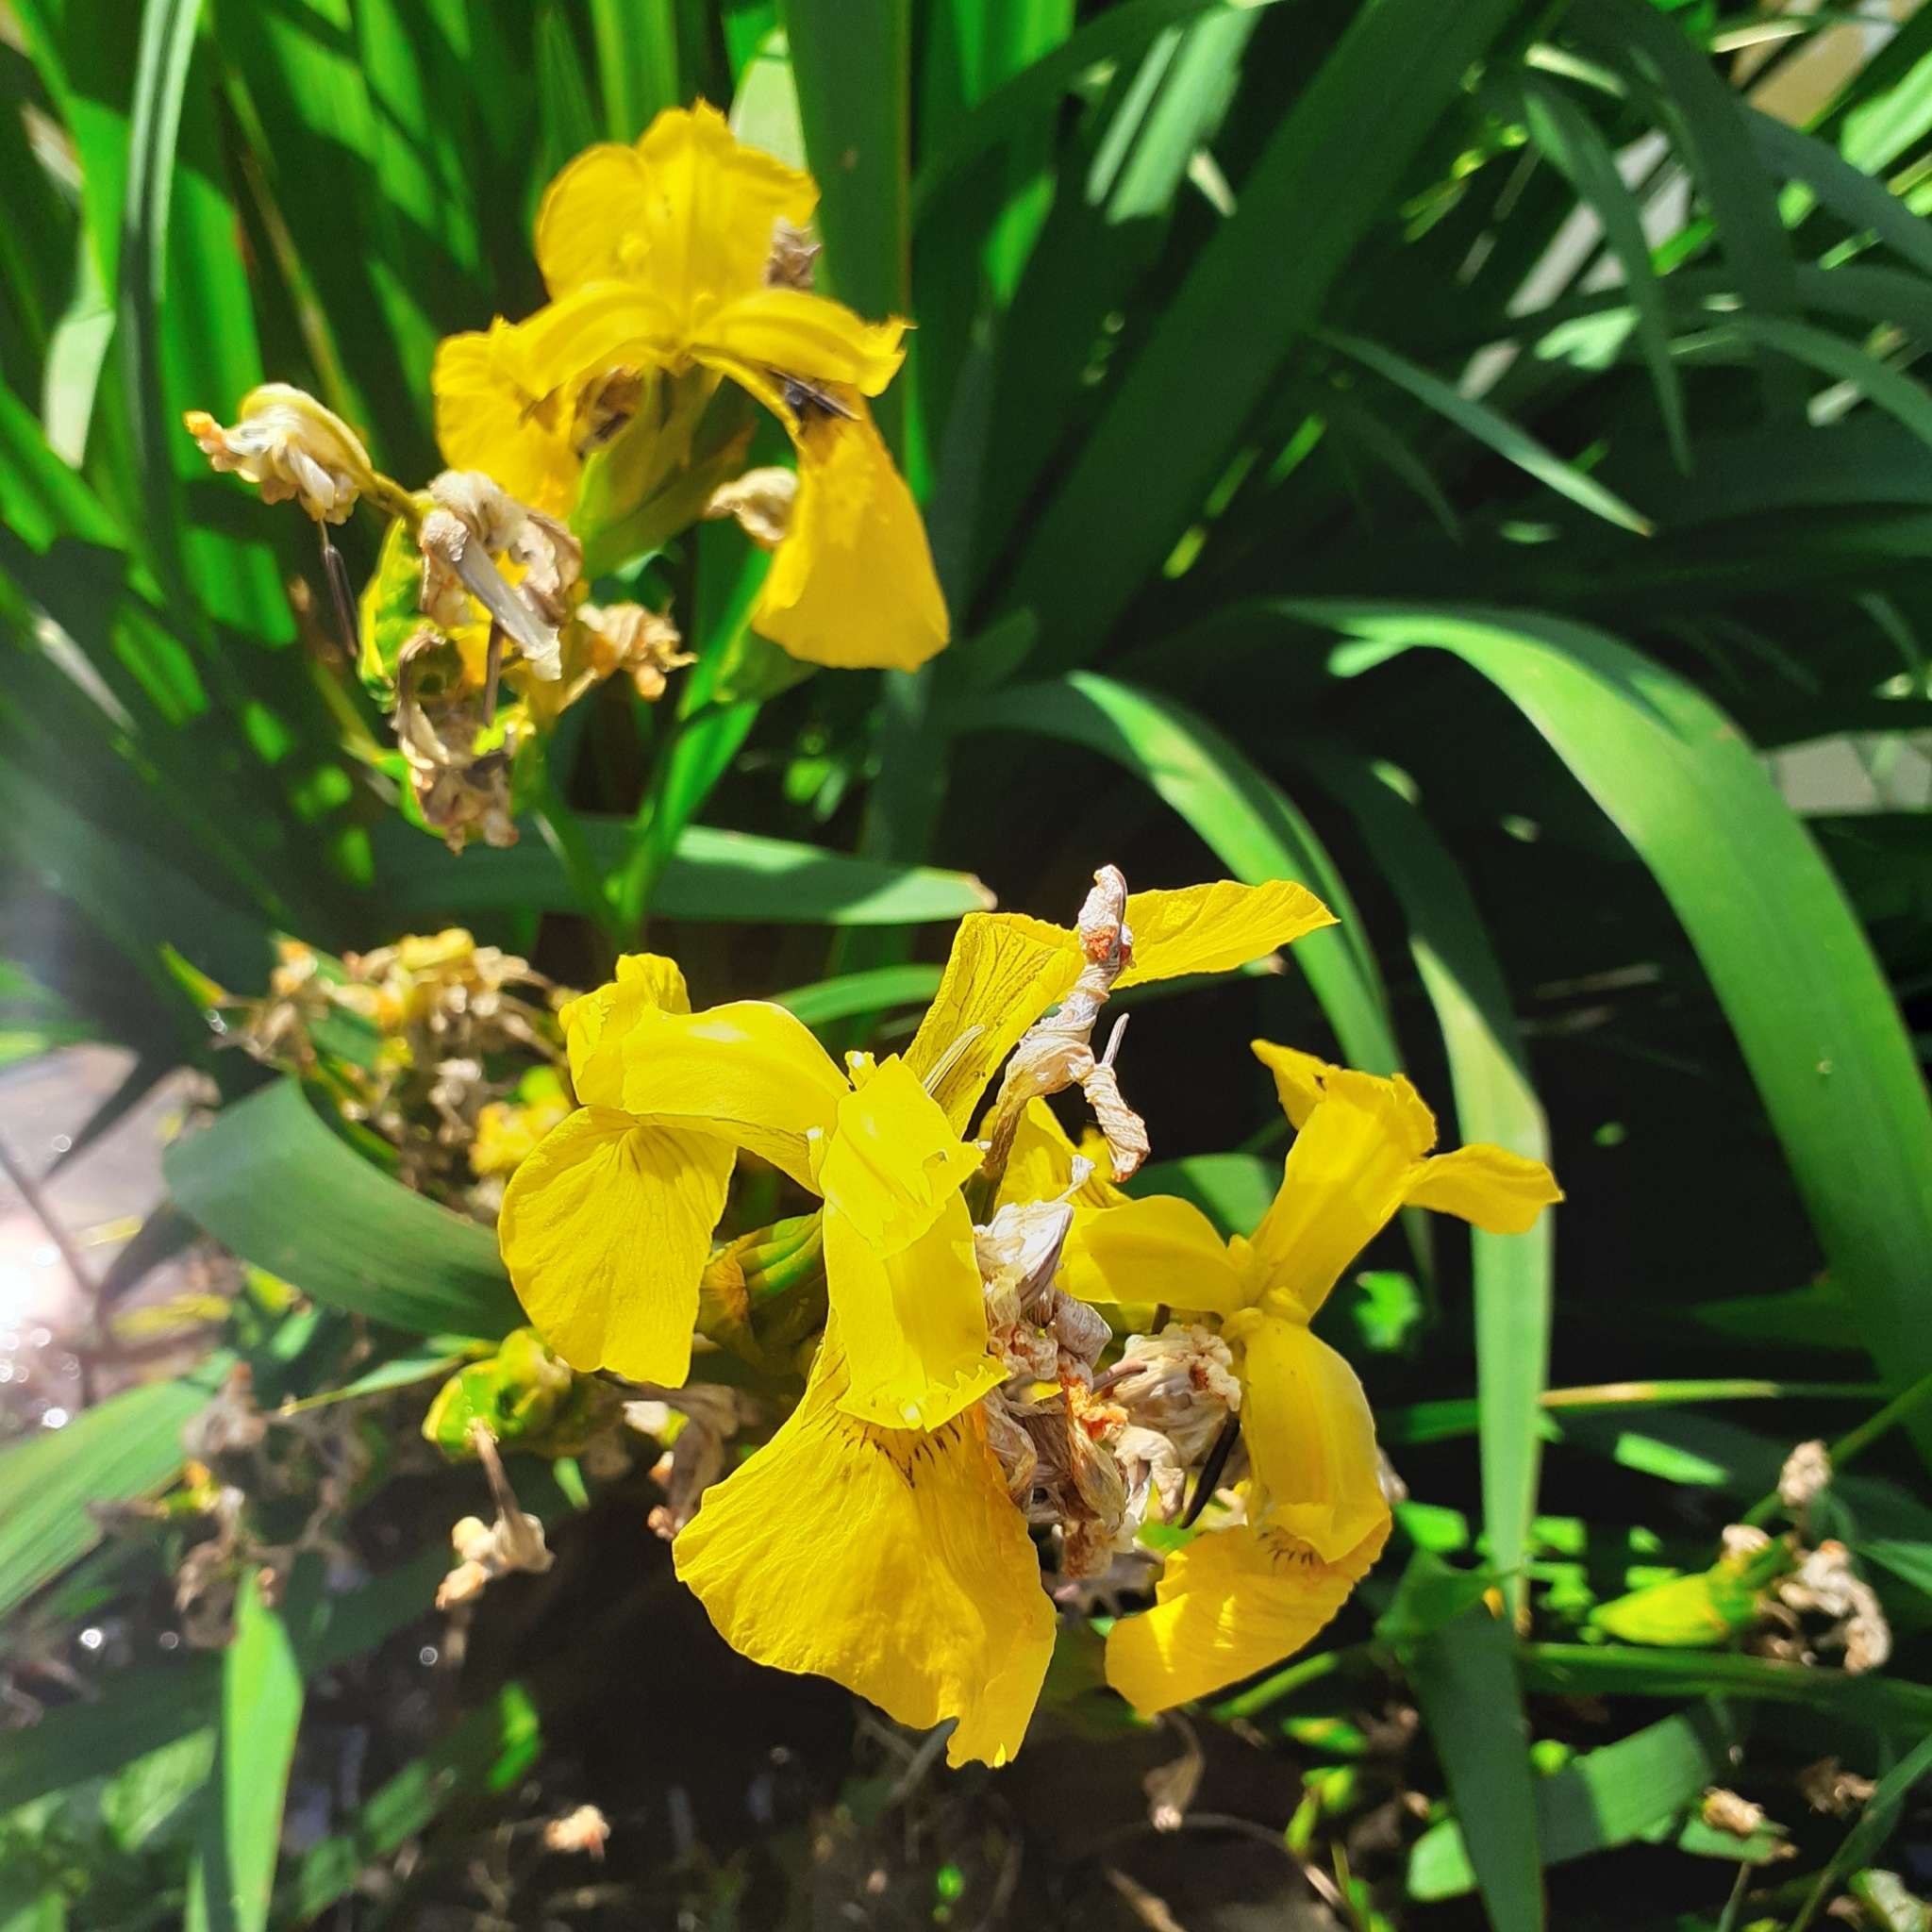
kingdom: Plantae
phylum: Tracheophyta
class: Liliopsida
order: Asparagales
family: Iridaceae
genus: Iris
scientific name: Iris pseudacorus
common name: Yellow flag
